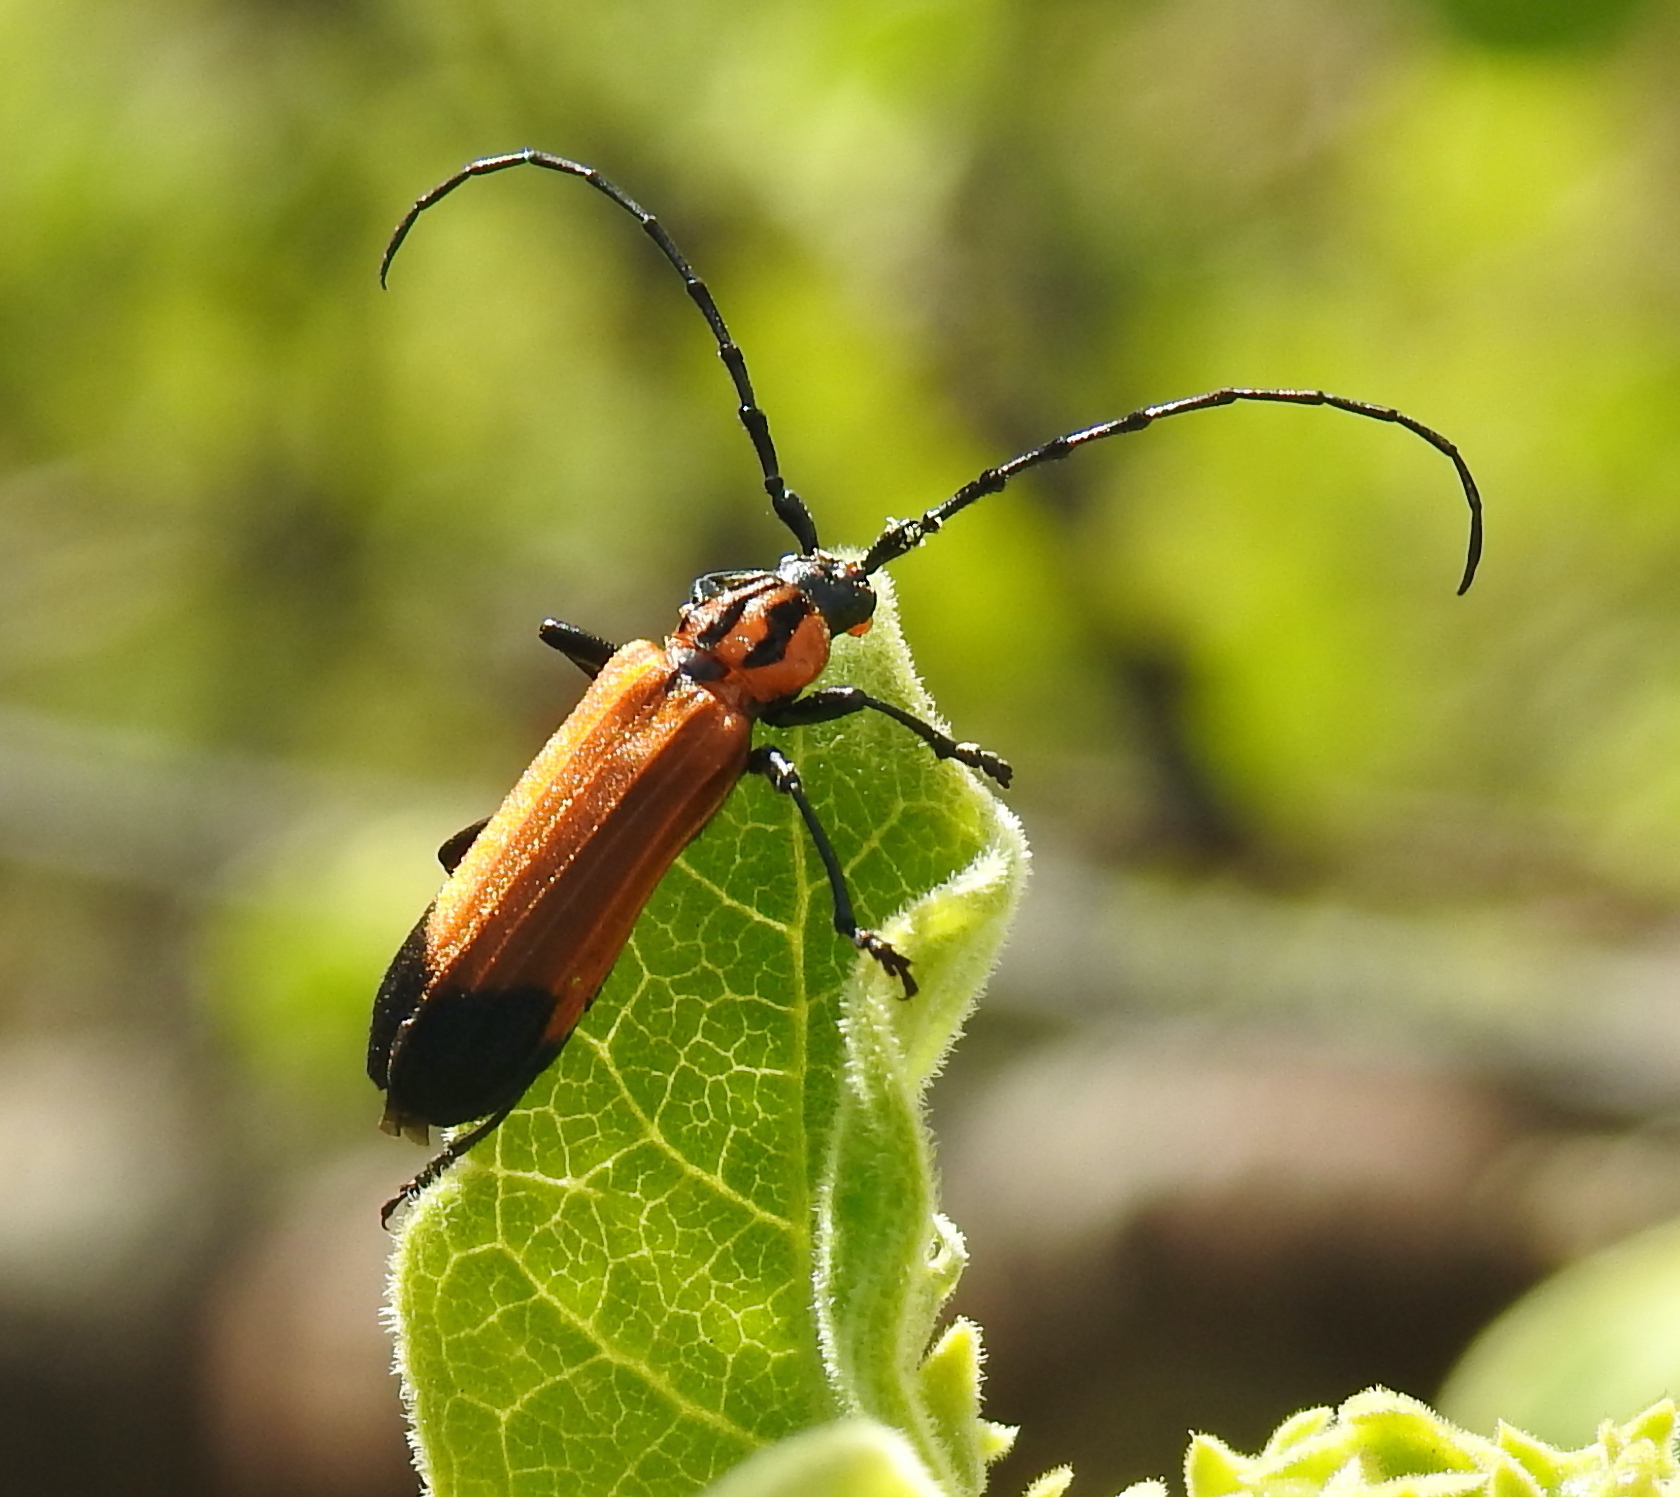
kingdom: Animalia
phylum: Arthropoda
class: Insecta
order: Coleoptera
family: Cerambycidae
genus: Amphidesmus
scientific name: Amphidesmus analis
